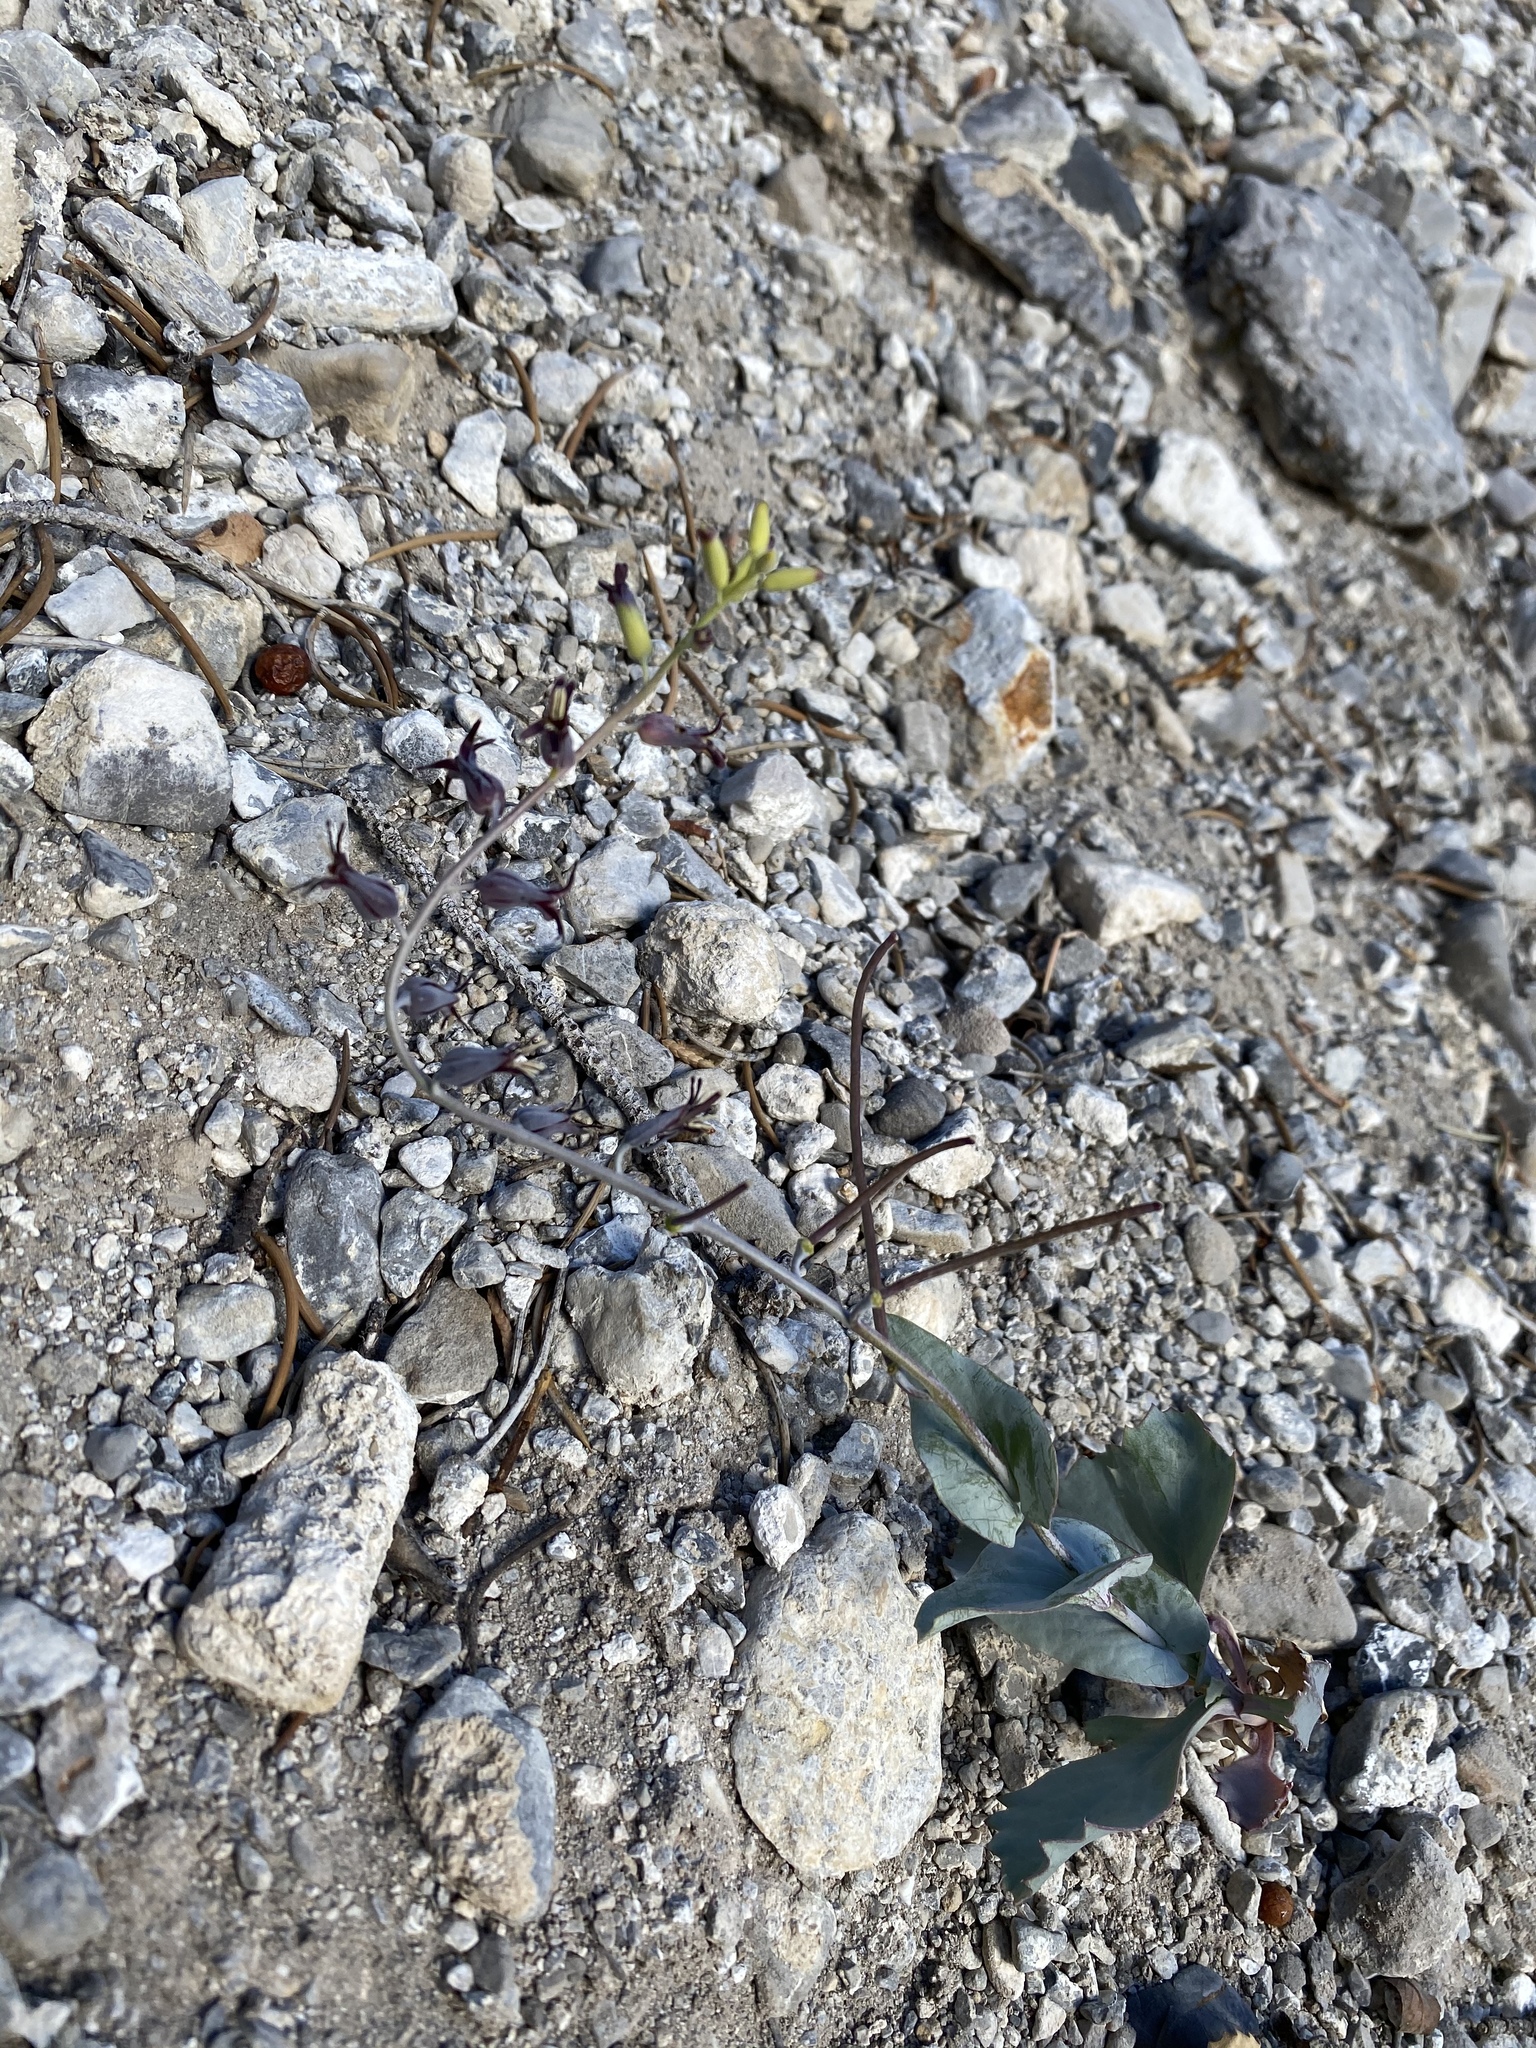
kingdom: Plantae
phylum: Tracheophyta
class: Magnoliopsida
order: Brassicales
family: Brassicaceae
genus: Streptanthus
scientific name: Streptanthus cordatus
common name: Heart-leaf jewel-flower
